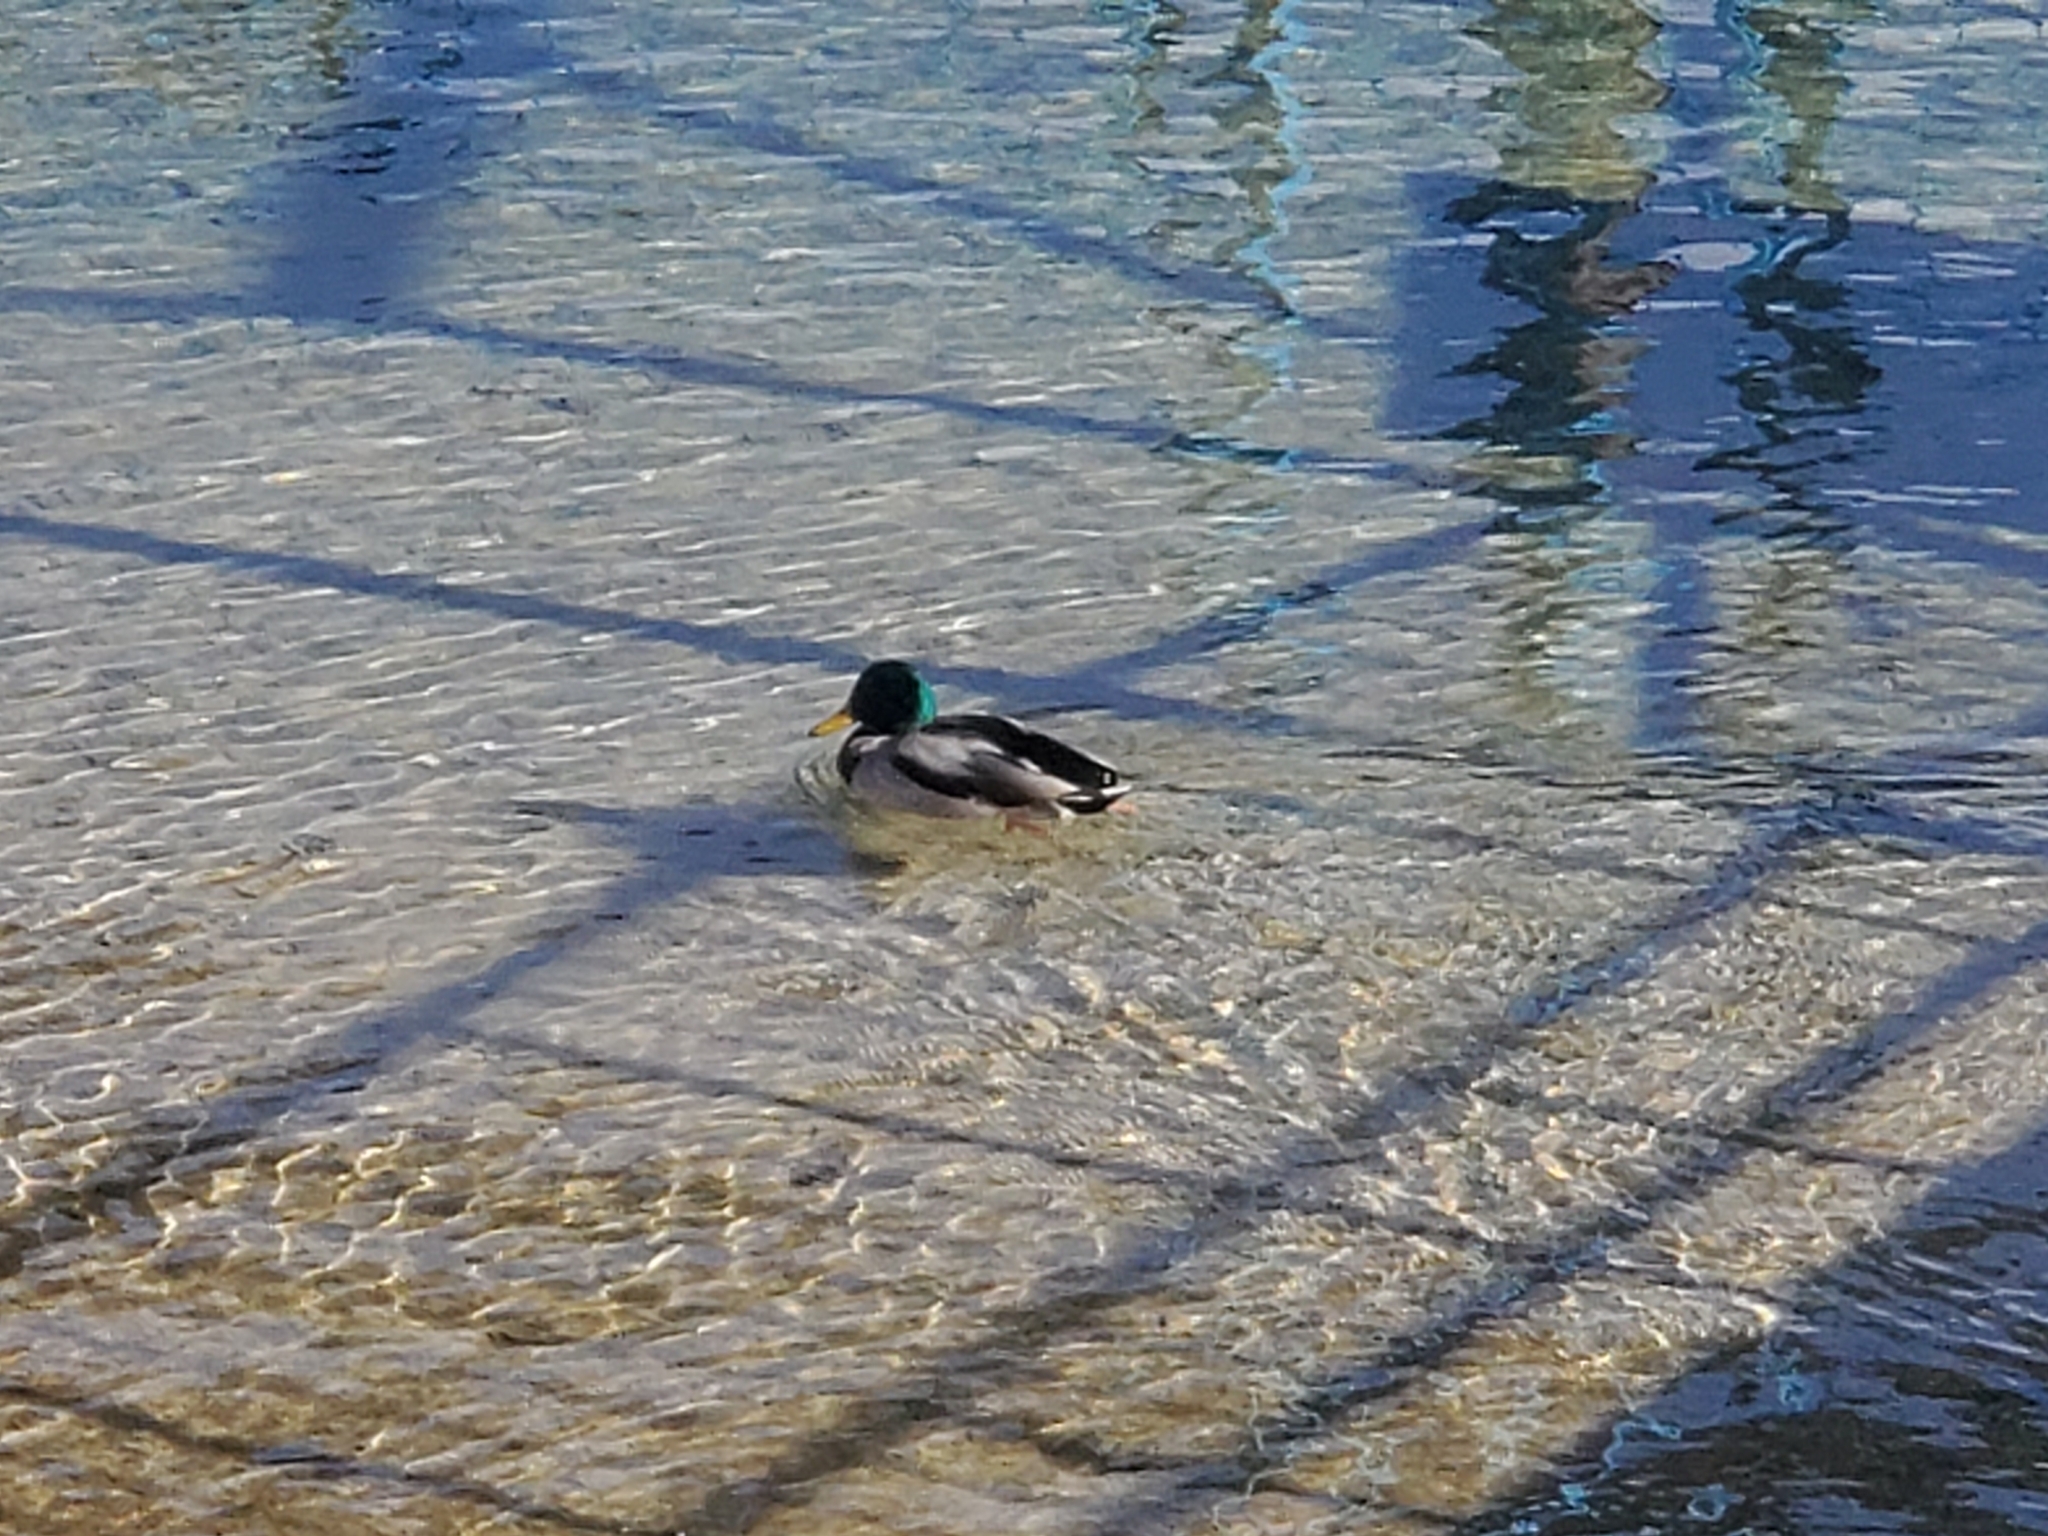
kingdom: Animalia
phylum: Chordata
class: Aves
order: Anseriformes
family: Anatidae
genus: Anas
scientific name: Anas platyrhynchos
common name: Mallard
